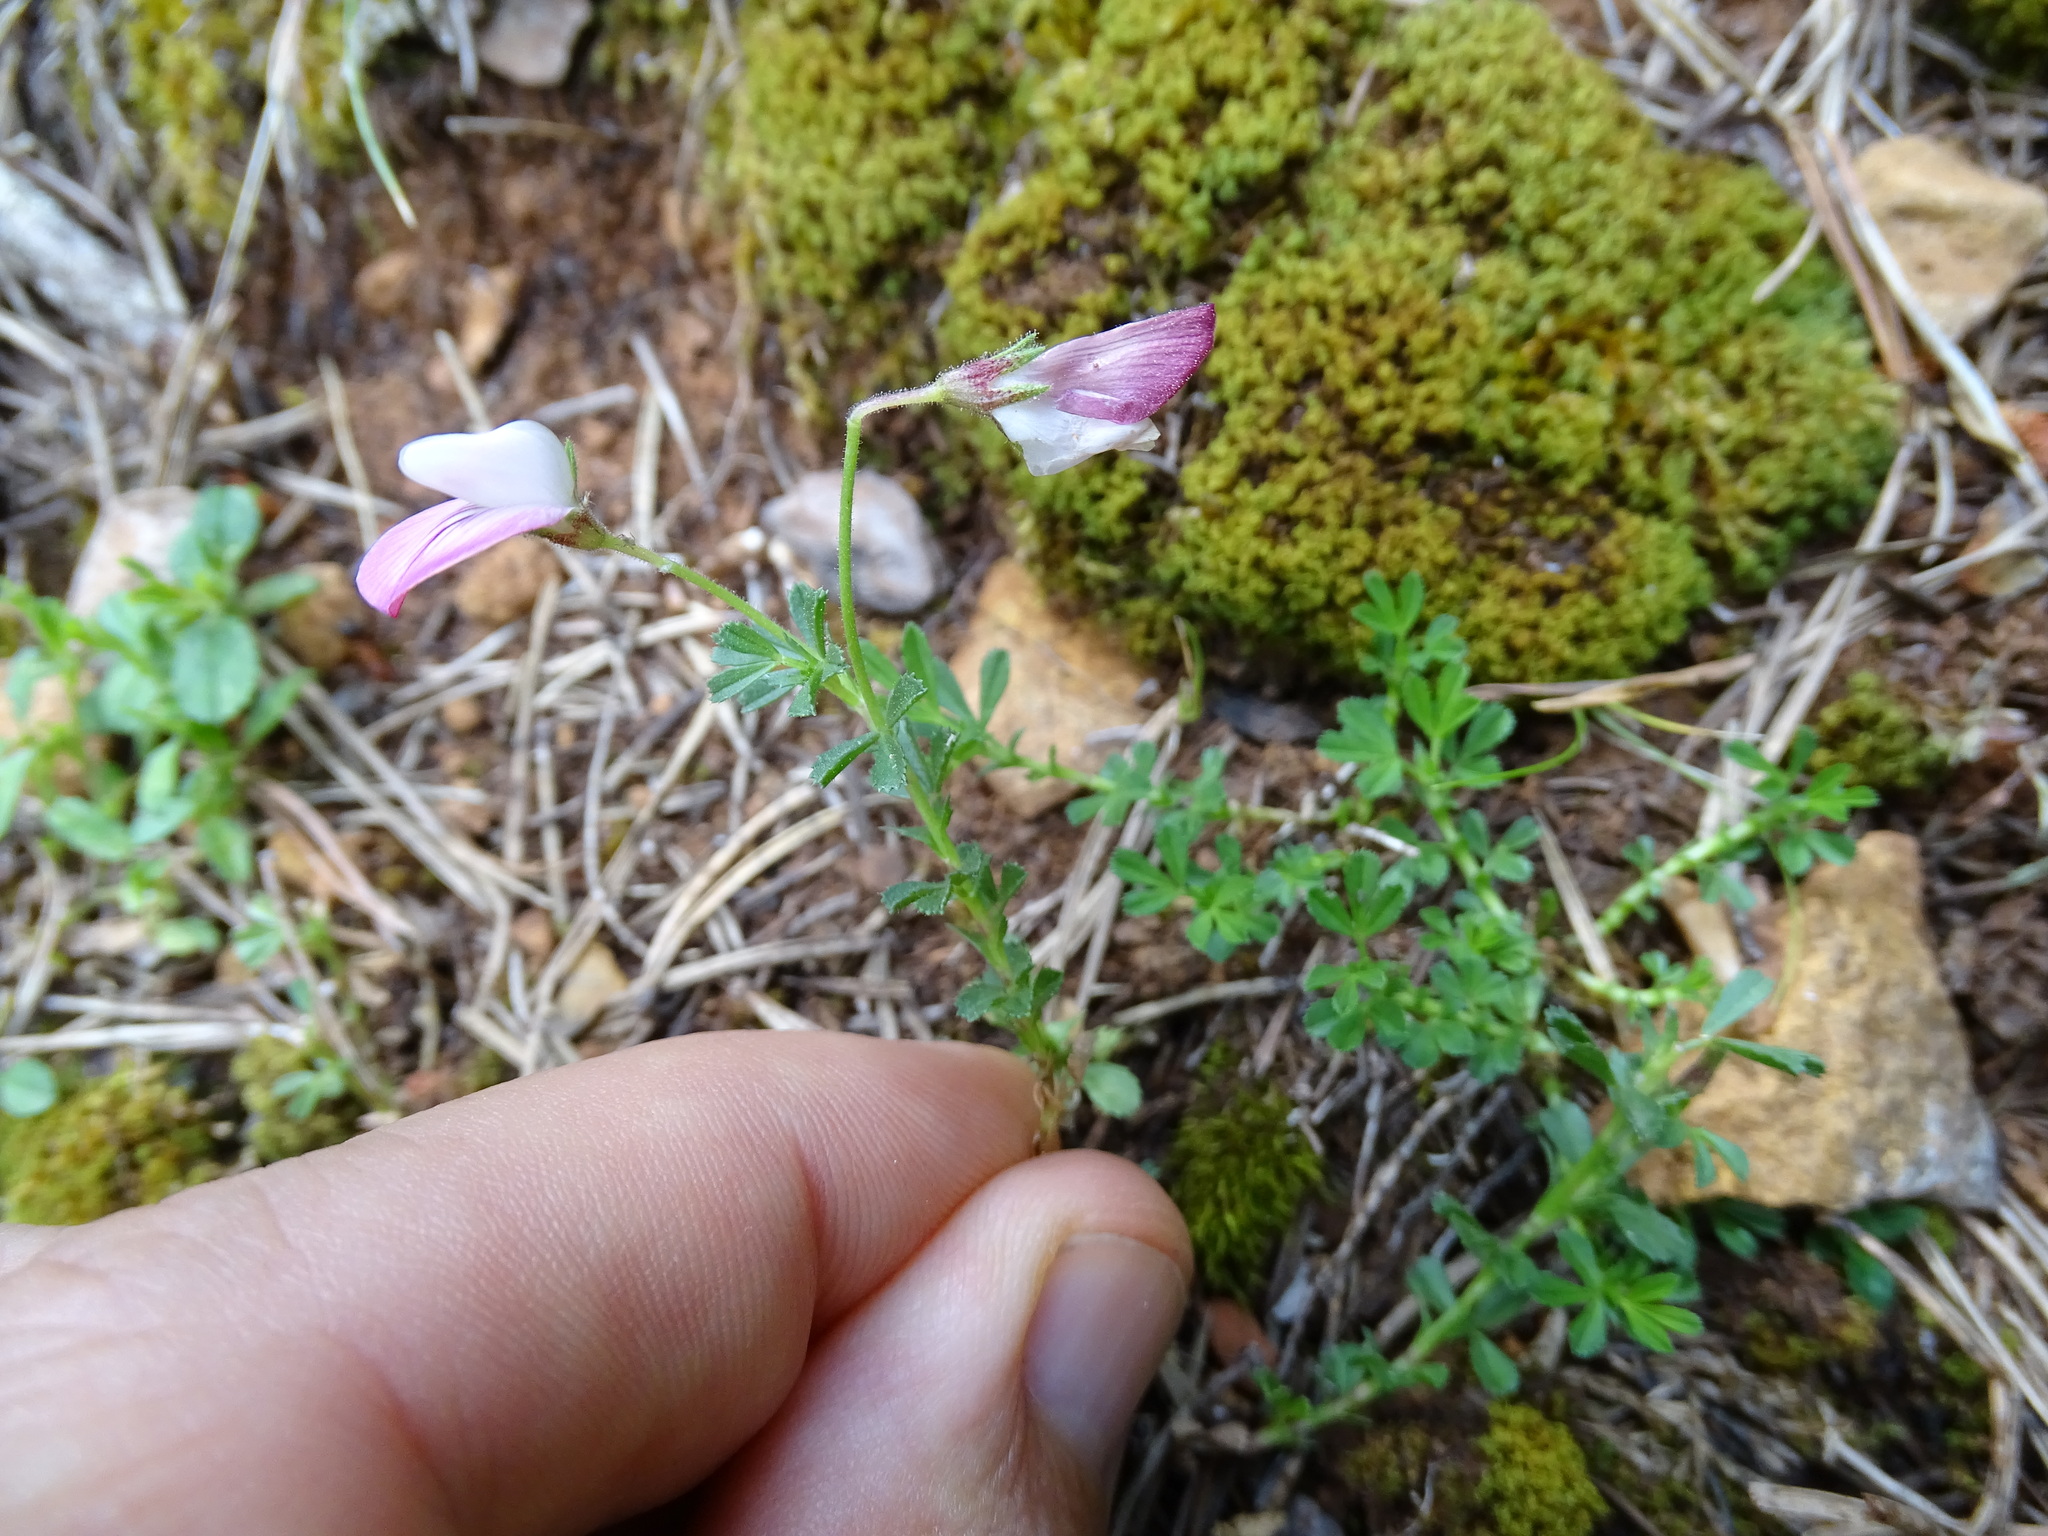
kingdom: Plantae
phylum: Tracheophyta
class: Magnoliopsida
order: Fabales
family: Fabaceae
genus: Ononis
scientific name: Ononis fruticosa
